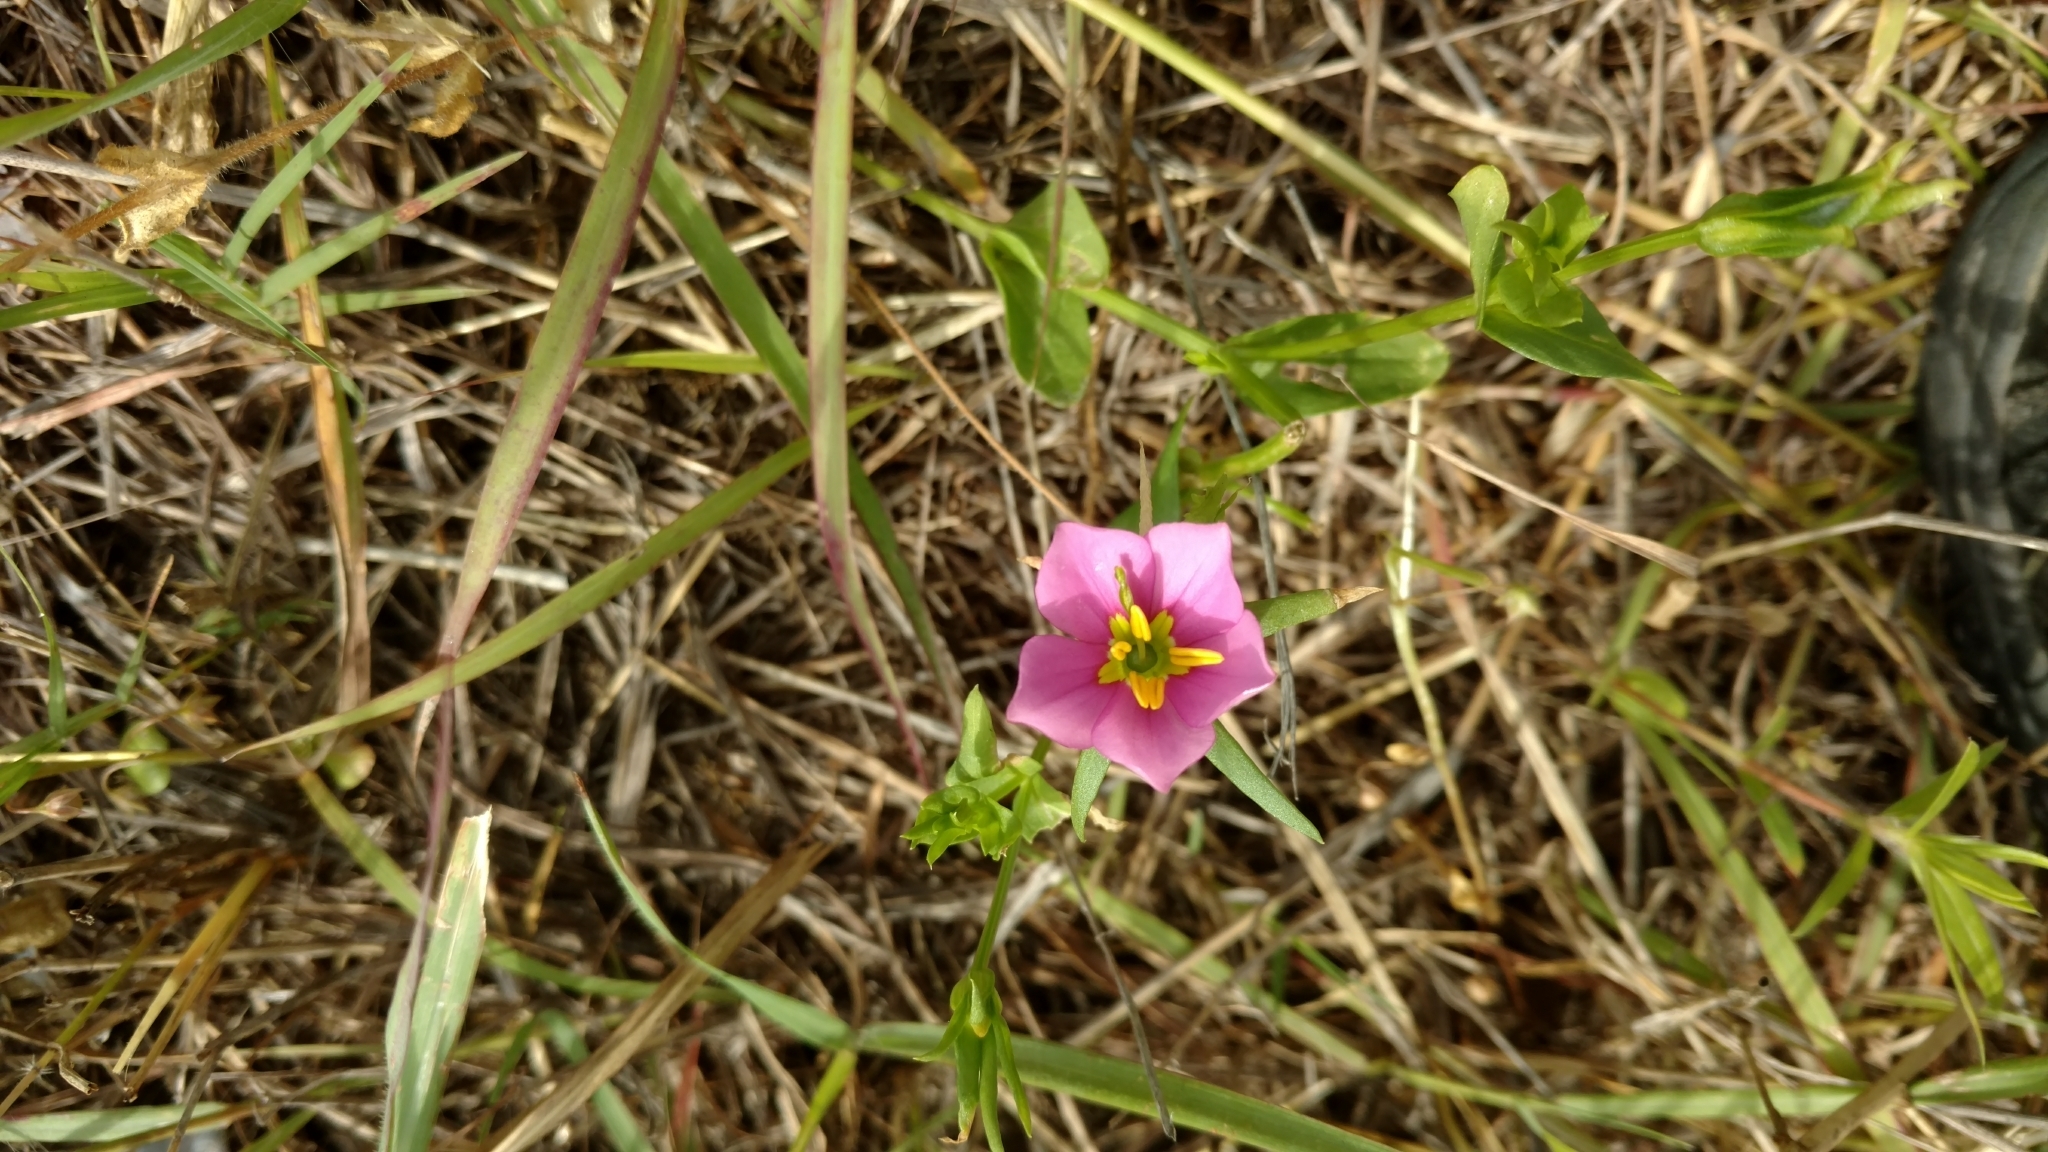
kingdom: Plantae
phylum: Tracheophyta
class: Magnoliopsida
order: Gentianales
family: Gentianaceae
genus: Sabatia
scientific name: Sabatia campestris
